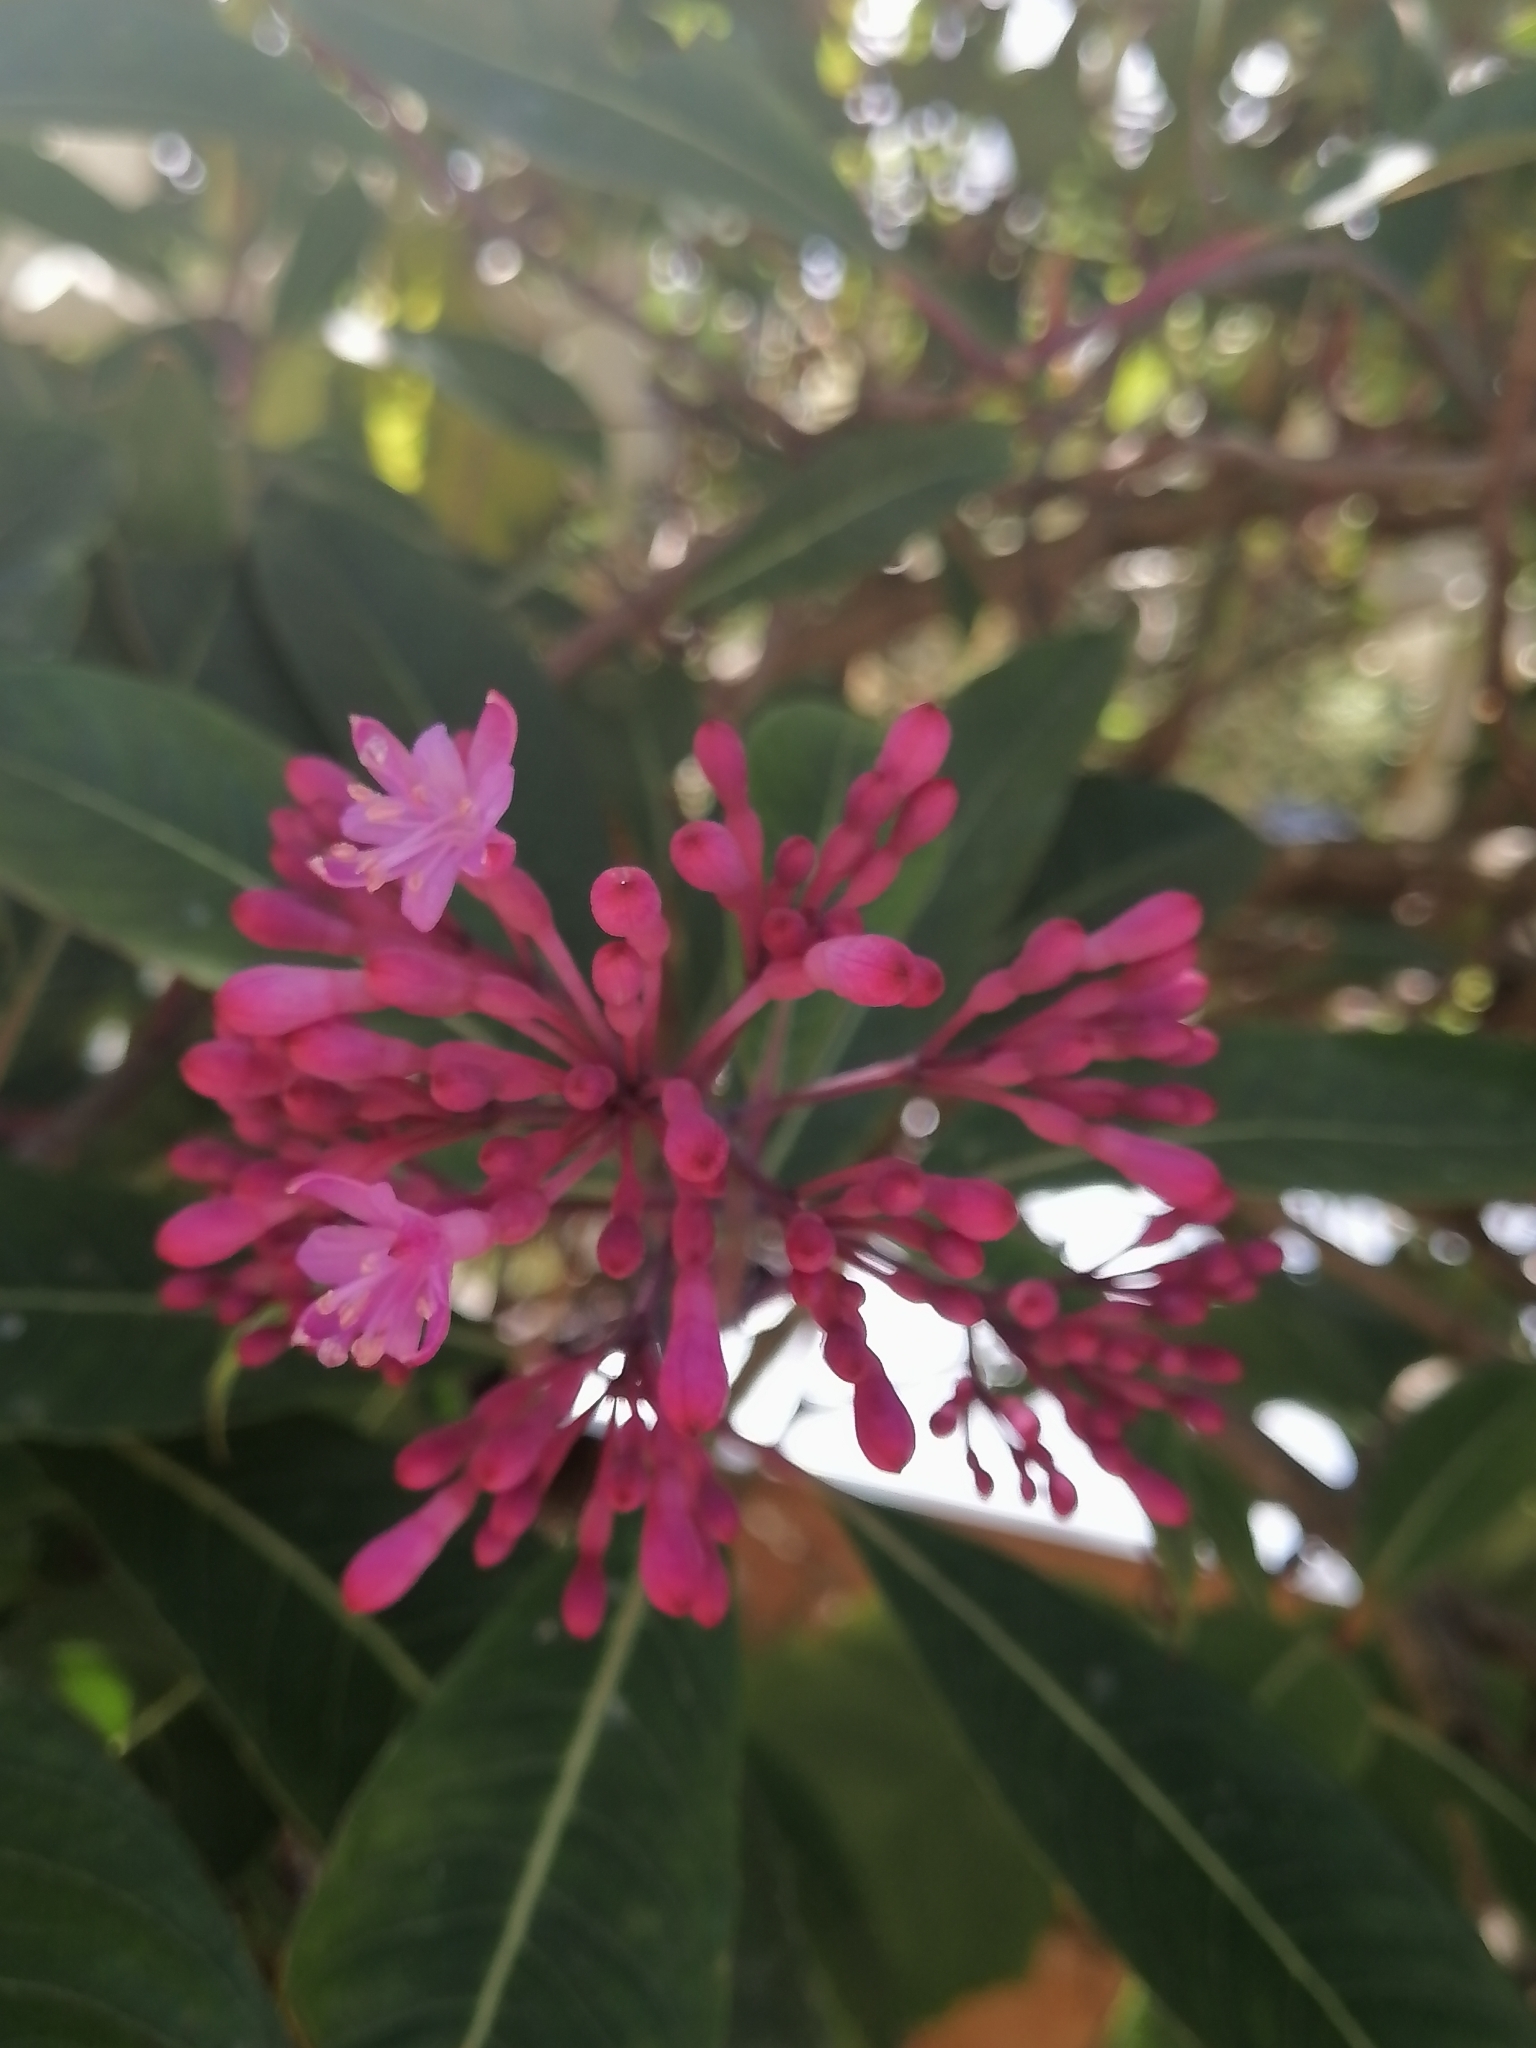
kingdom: Plantae
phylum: Tracheophyta
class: Magnoliopsida
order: Myrtales
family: Onagraceae
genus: Fuchsia
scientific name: Fuchsia paniculata
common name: Shrubby fuchsia
